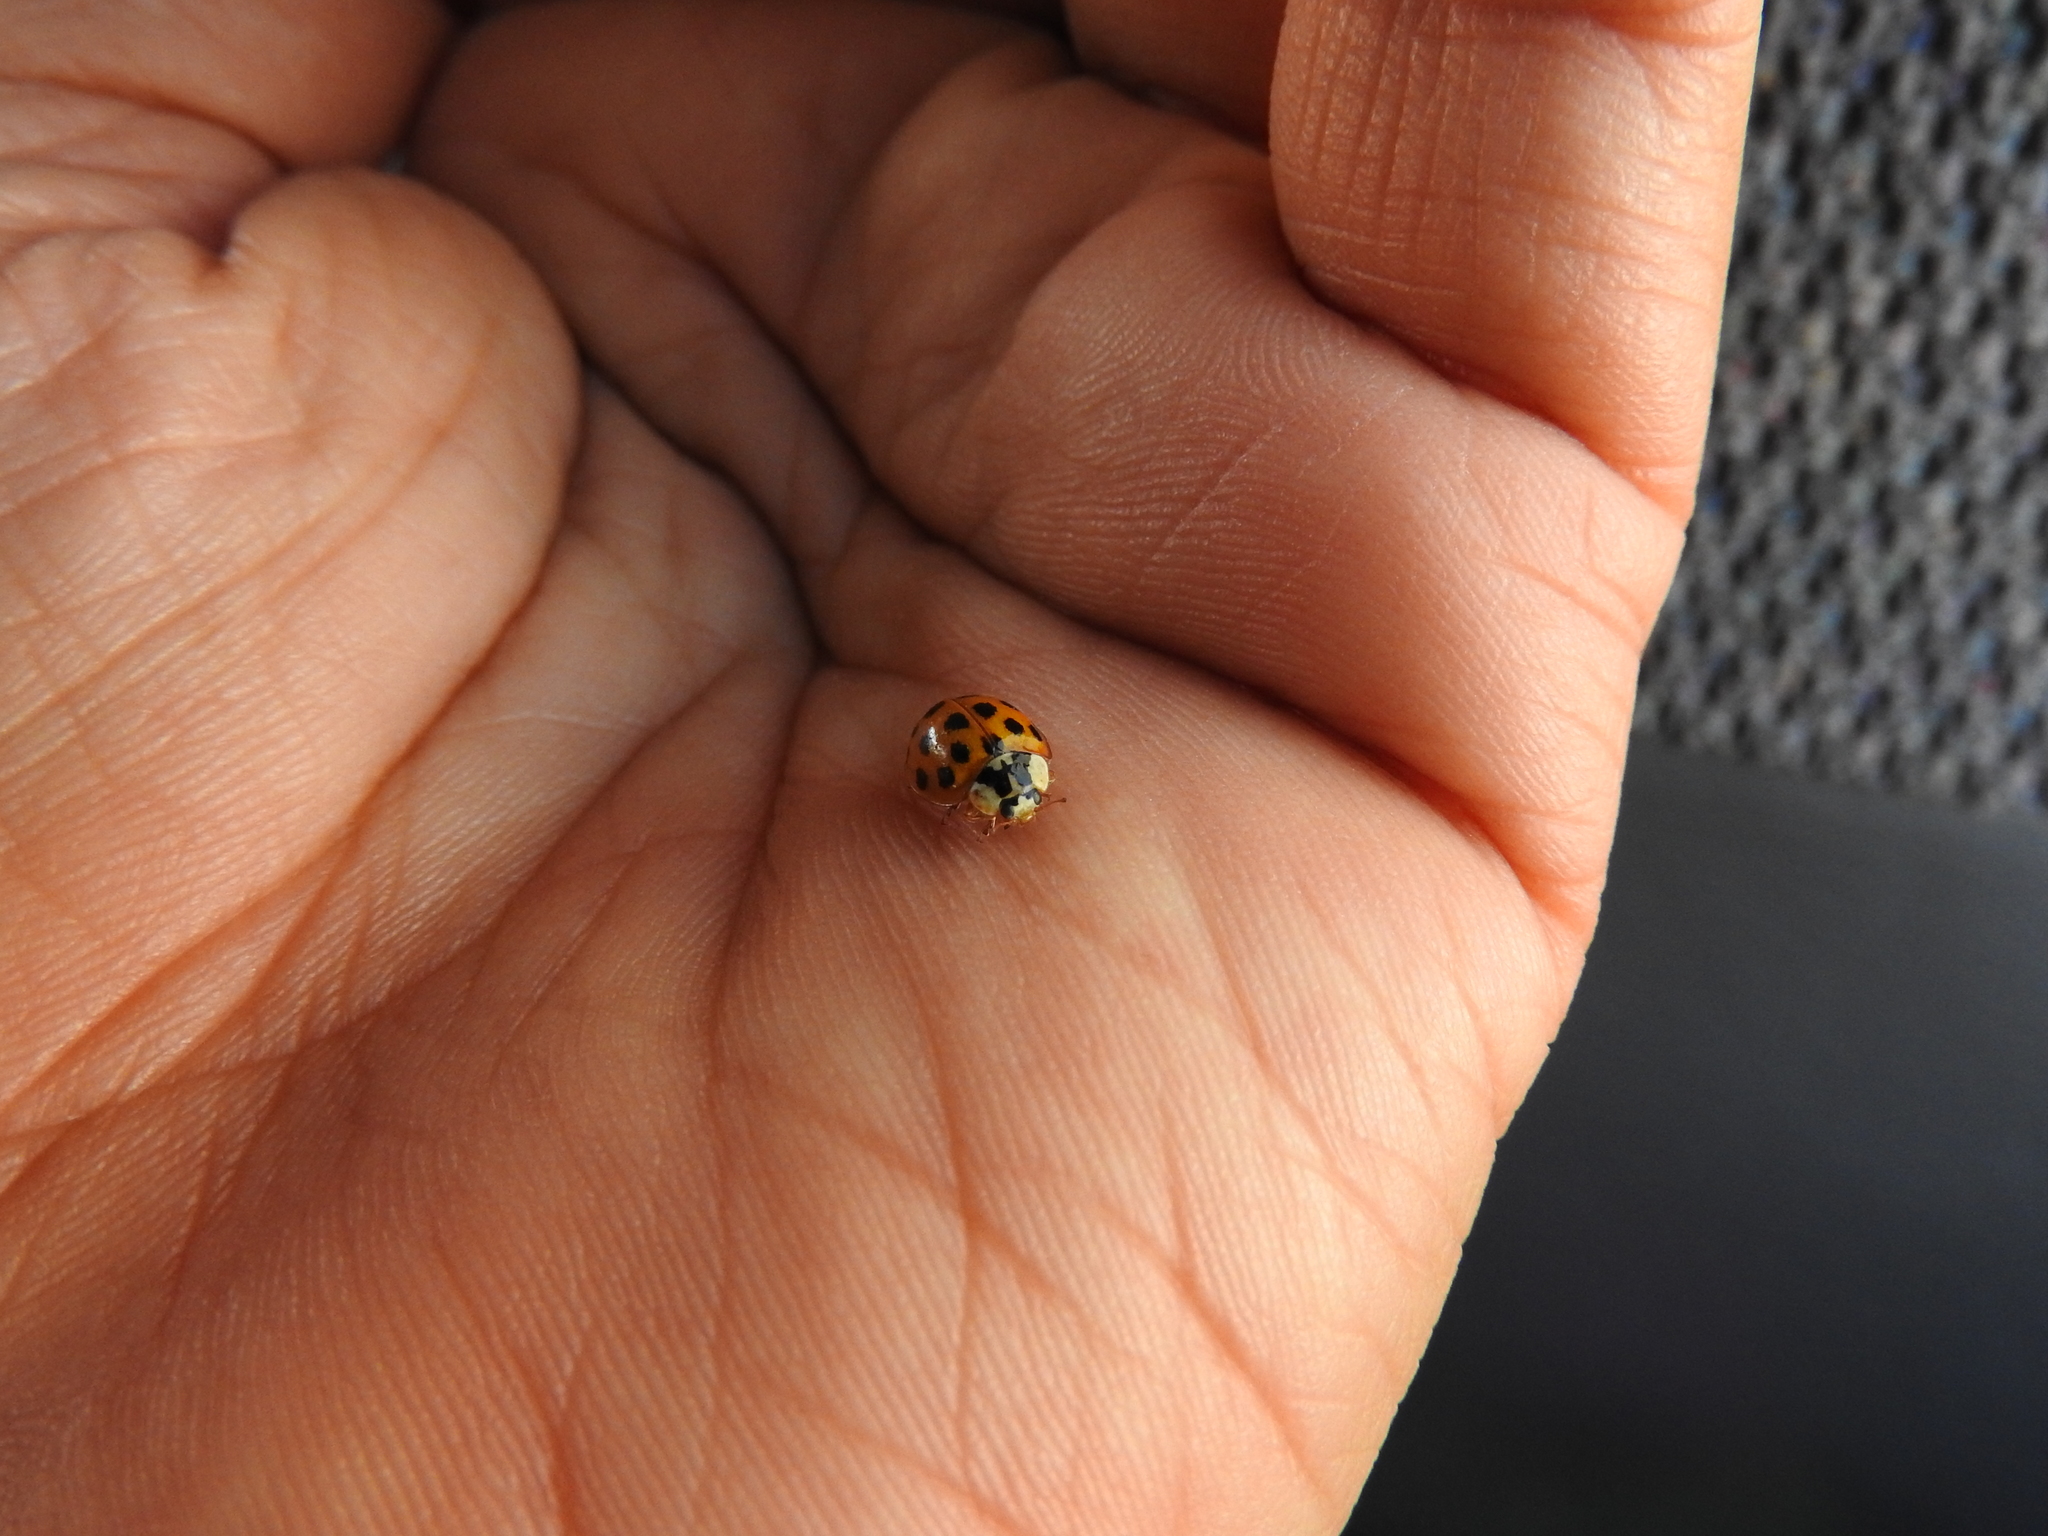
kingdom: Animalia
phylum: Arthropoda
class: Insecta
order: Coleoptera
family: Coccinellidae
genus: Harmonia
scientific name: Harmonia axyridis
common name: Harlequin ladybird
